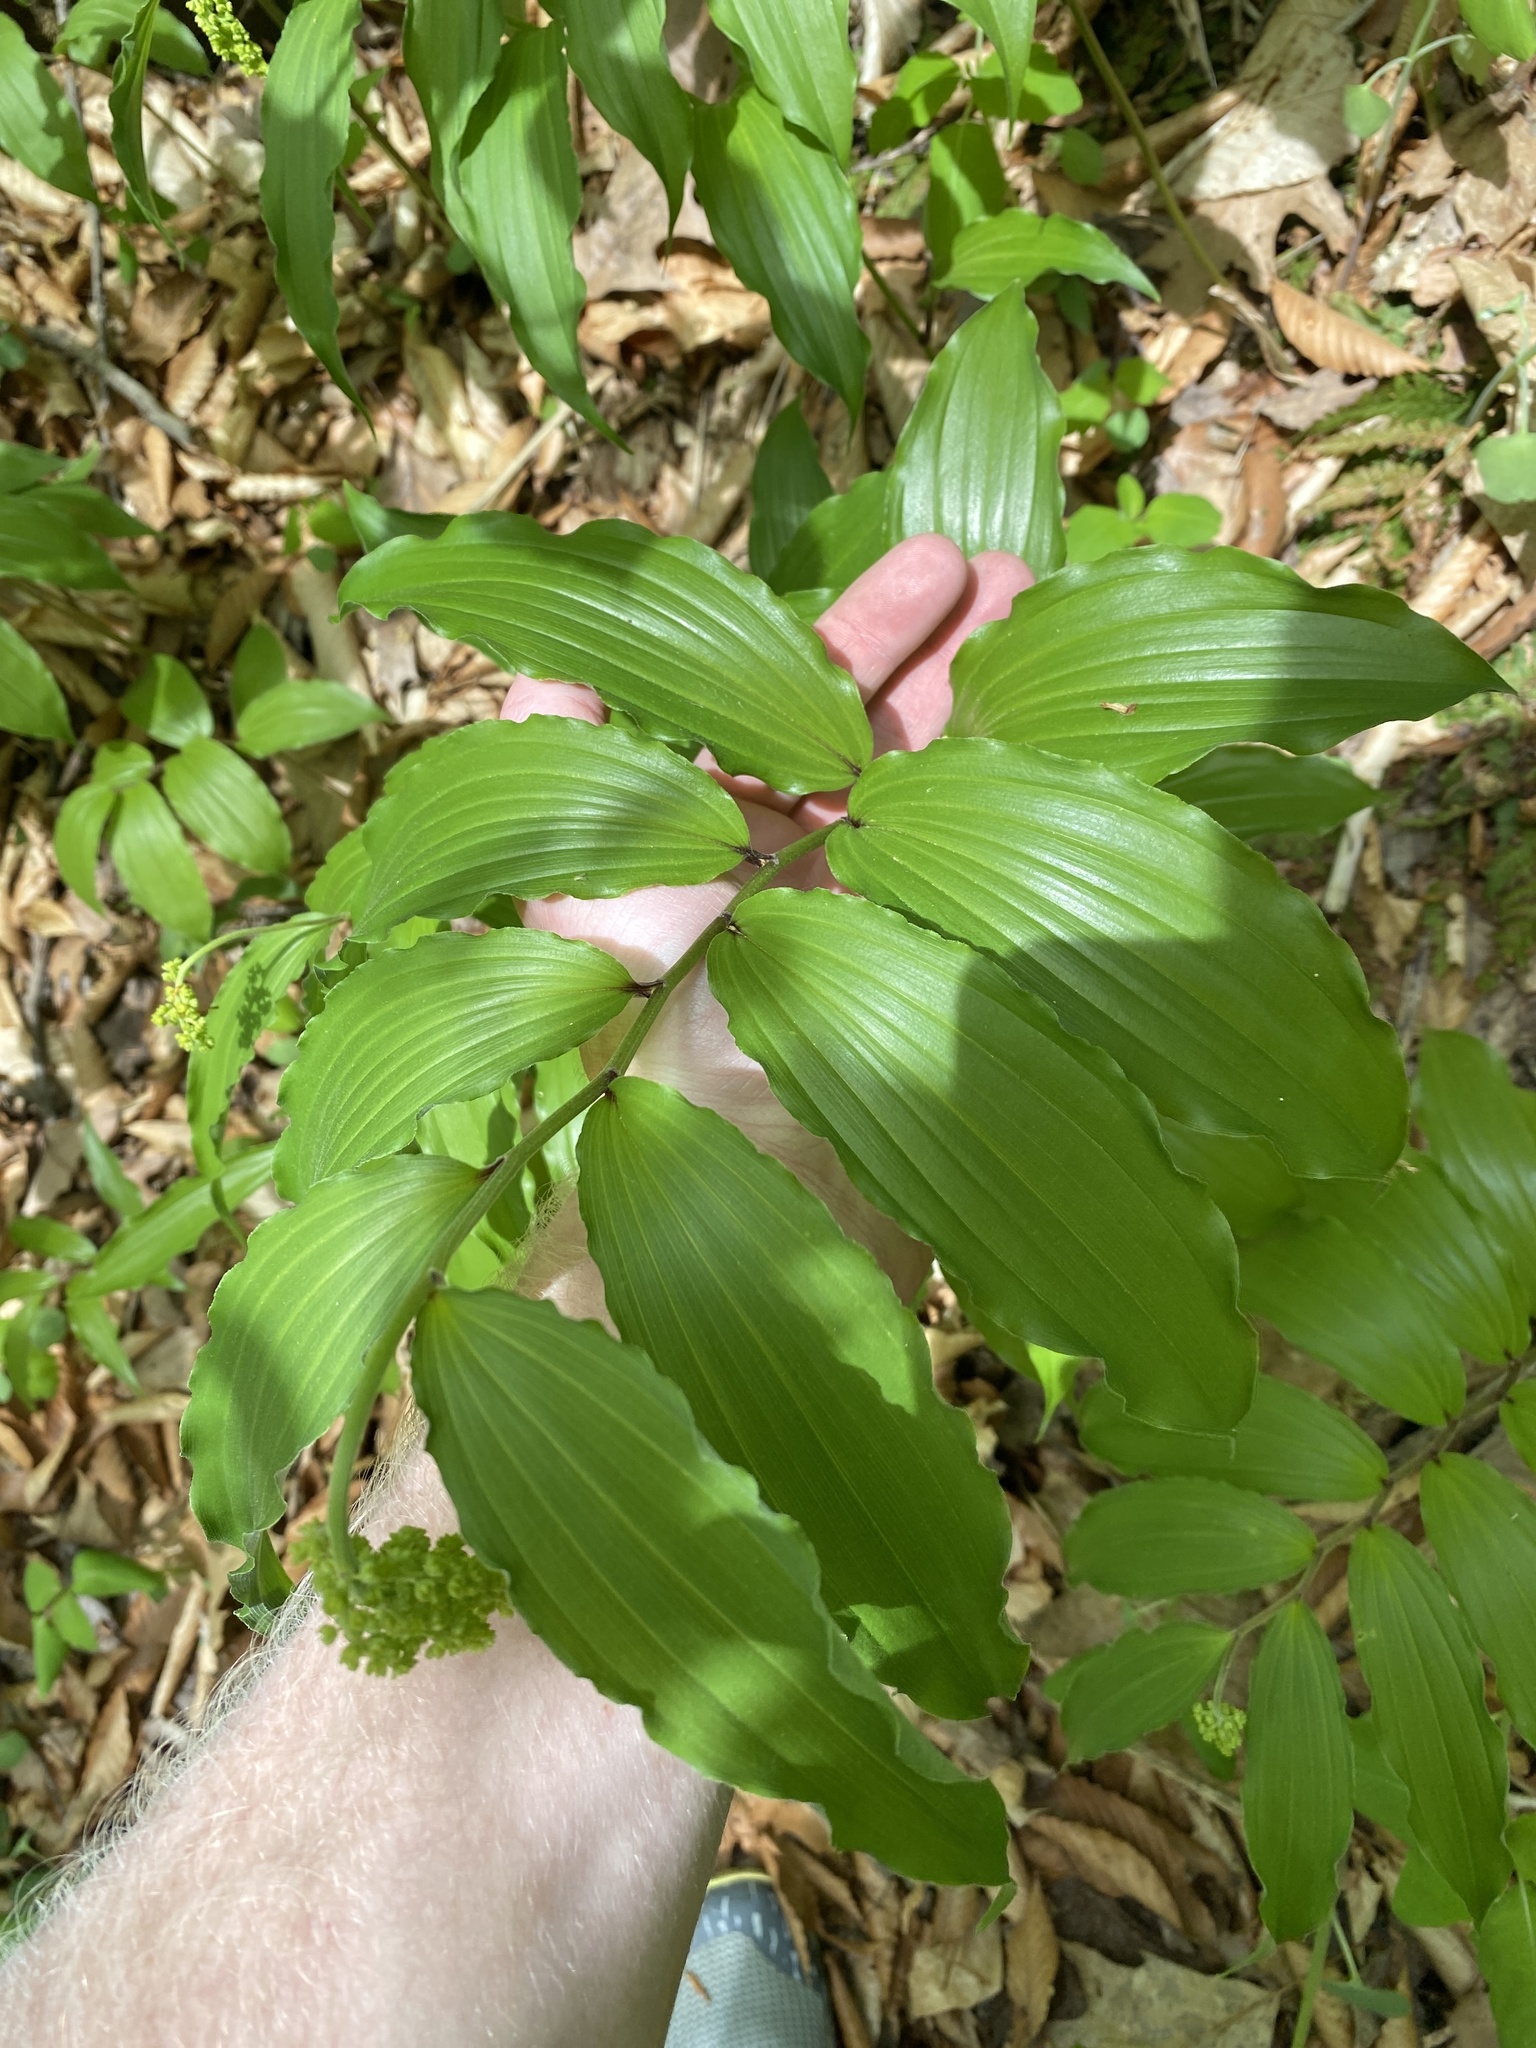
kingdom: Plantae
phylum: Tracheophyta
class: Liliopsida
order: Asparagales
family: Asparagaceae
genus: Maianthemum
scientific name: Maianthemum racemosum
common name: False spikenard
